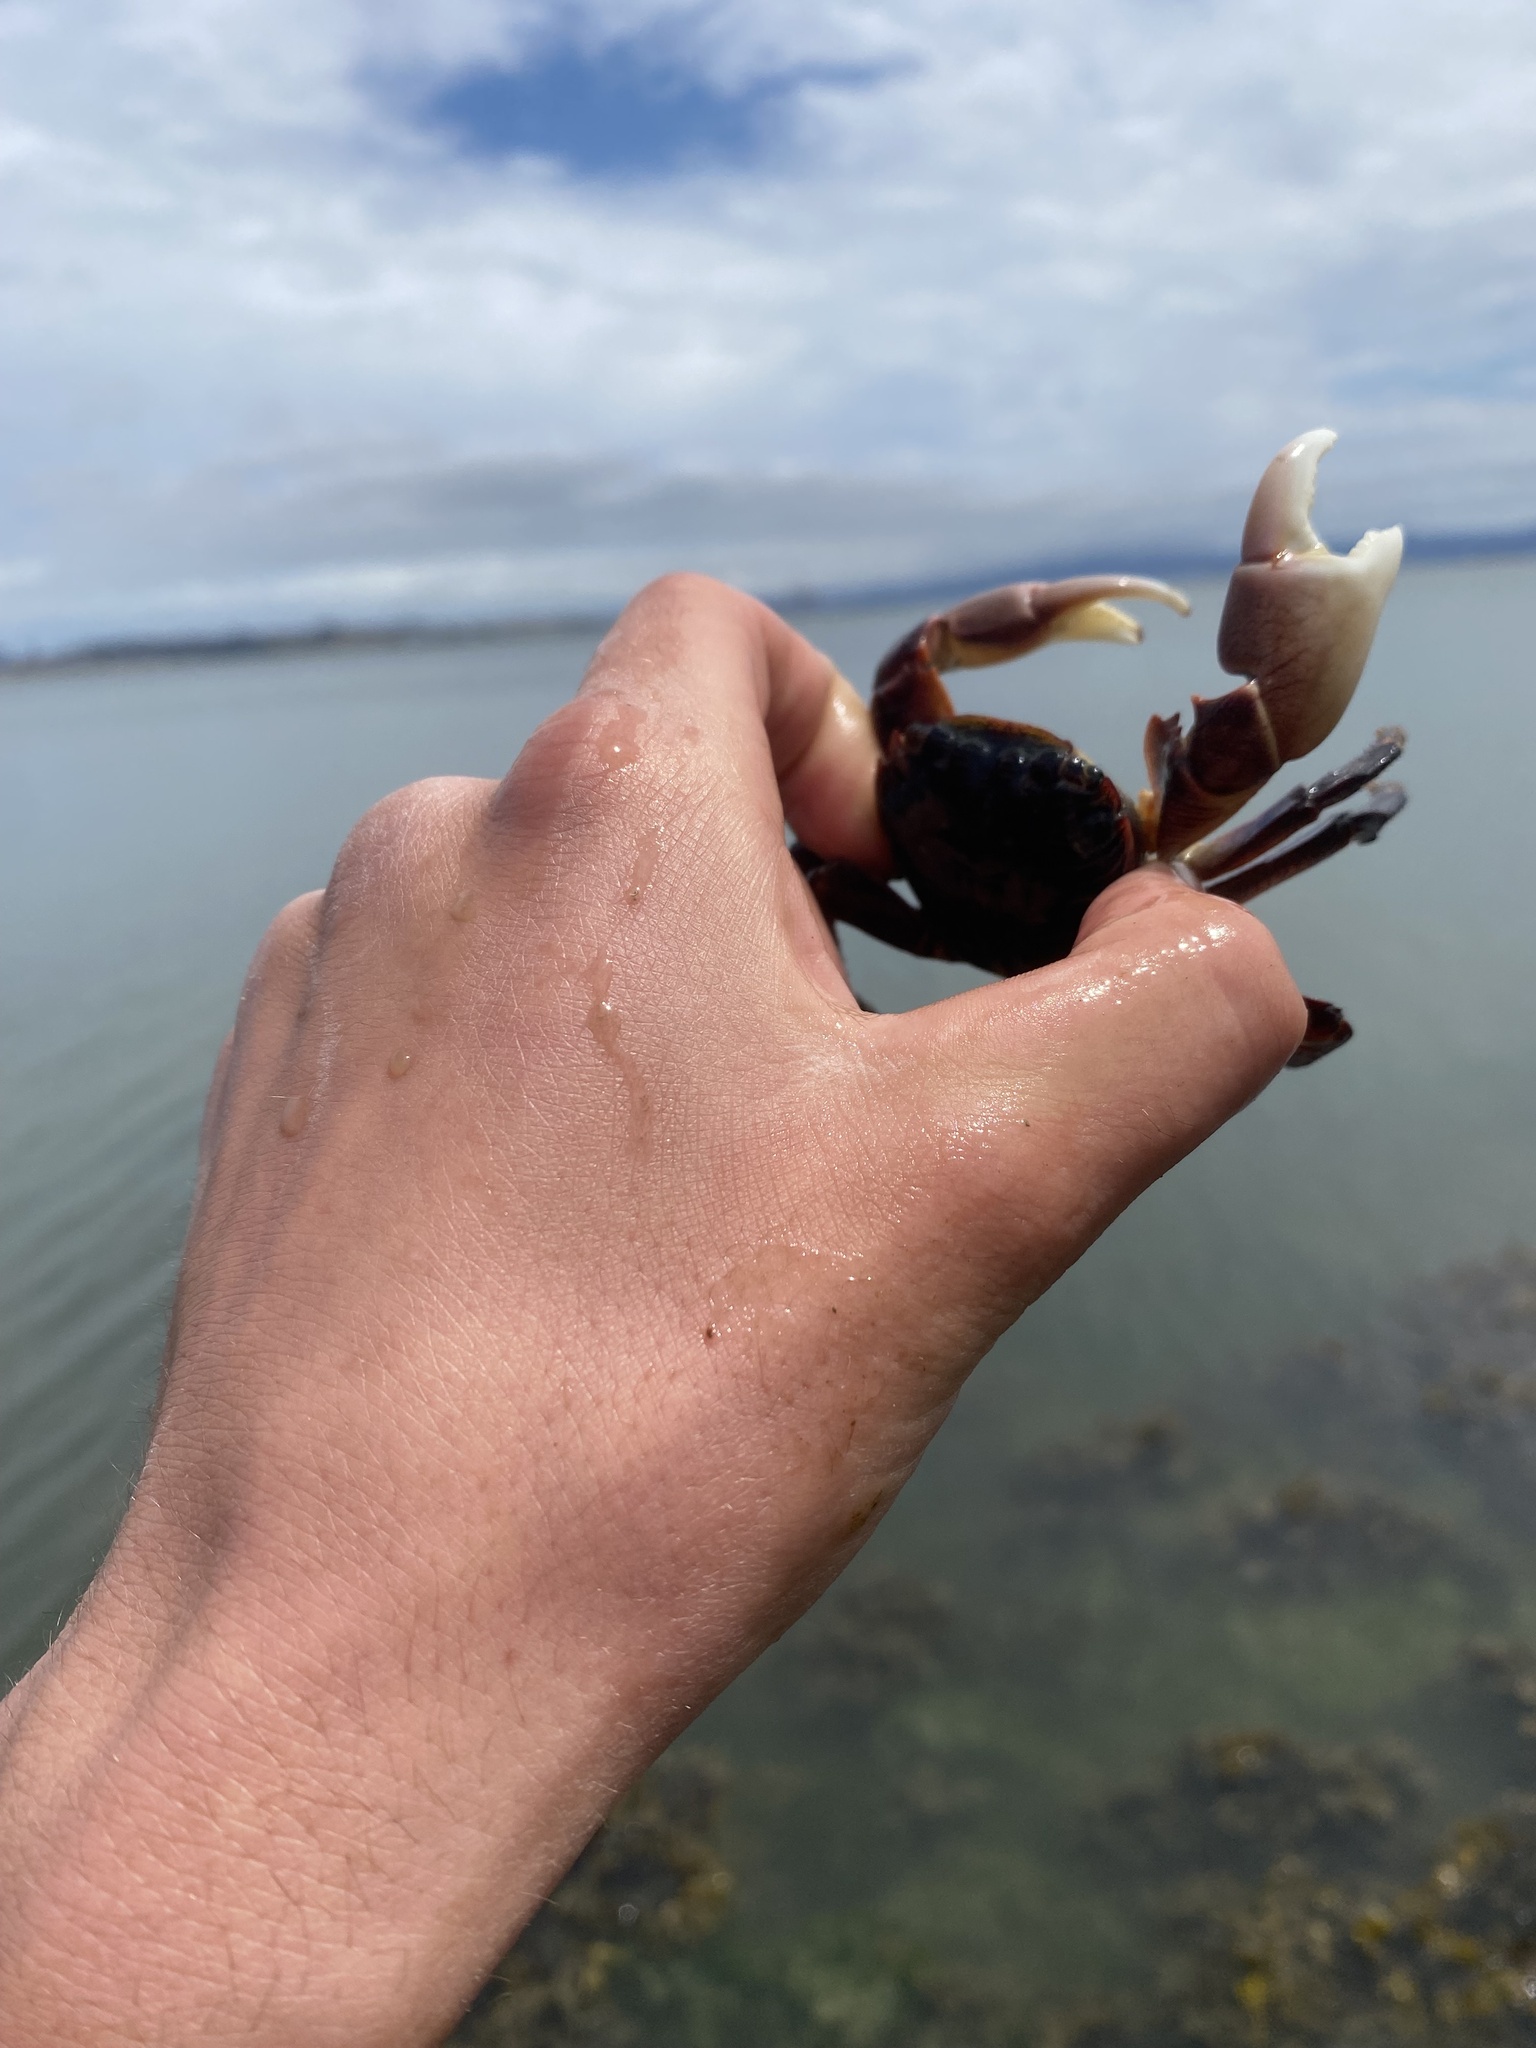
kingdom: Animalia
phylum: Arthropoda
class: Malacostraca
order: Decapoda
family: Grapsidae
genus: Pachygrapsus
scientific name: Pachygrapsus crassipes
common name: Striped shore crab
